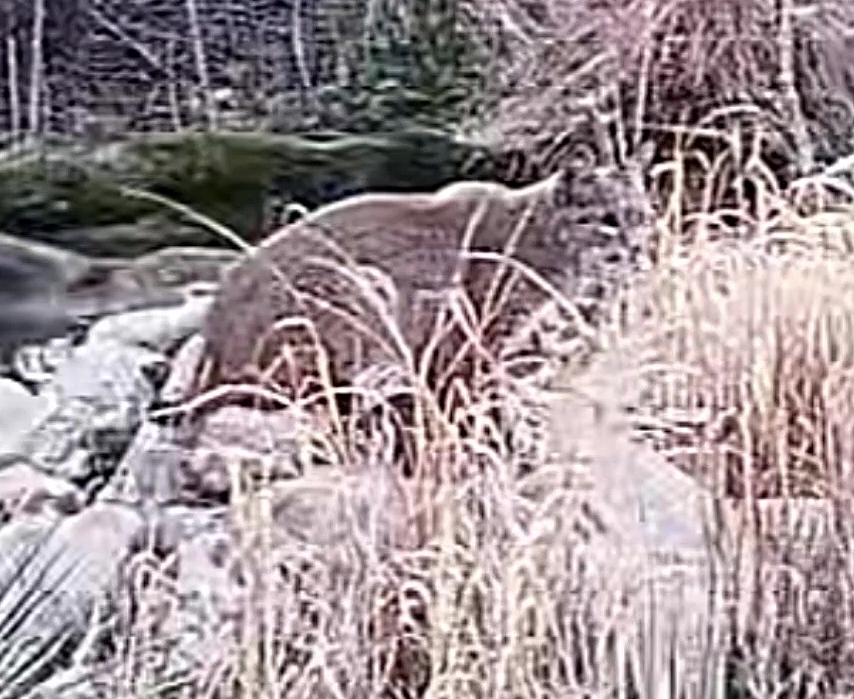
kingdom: Animalia
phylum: Chordata
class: Mammalia
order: Carnivora
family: Felidae
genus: Lynx
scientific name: Lynx rufus
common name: Bobcat
